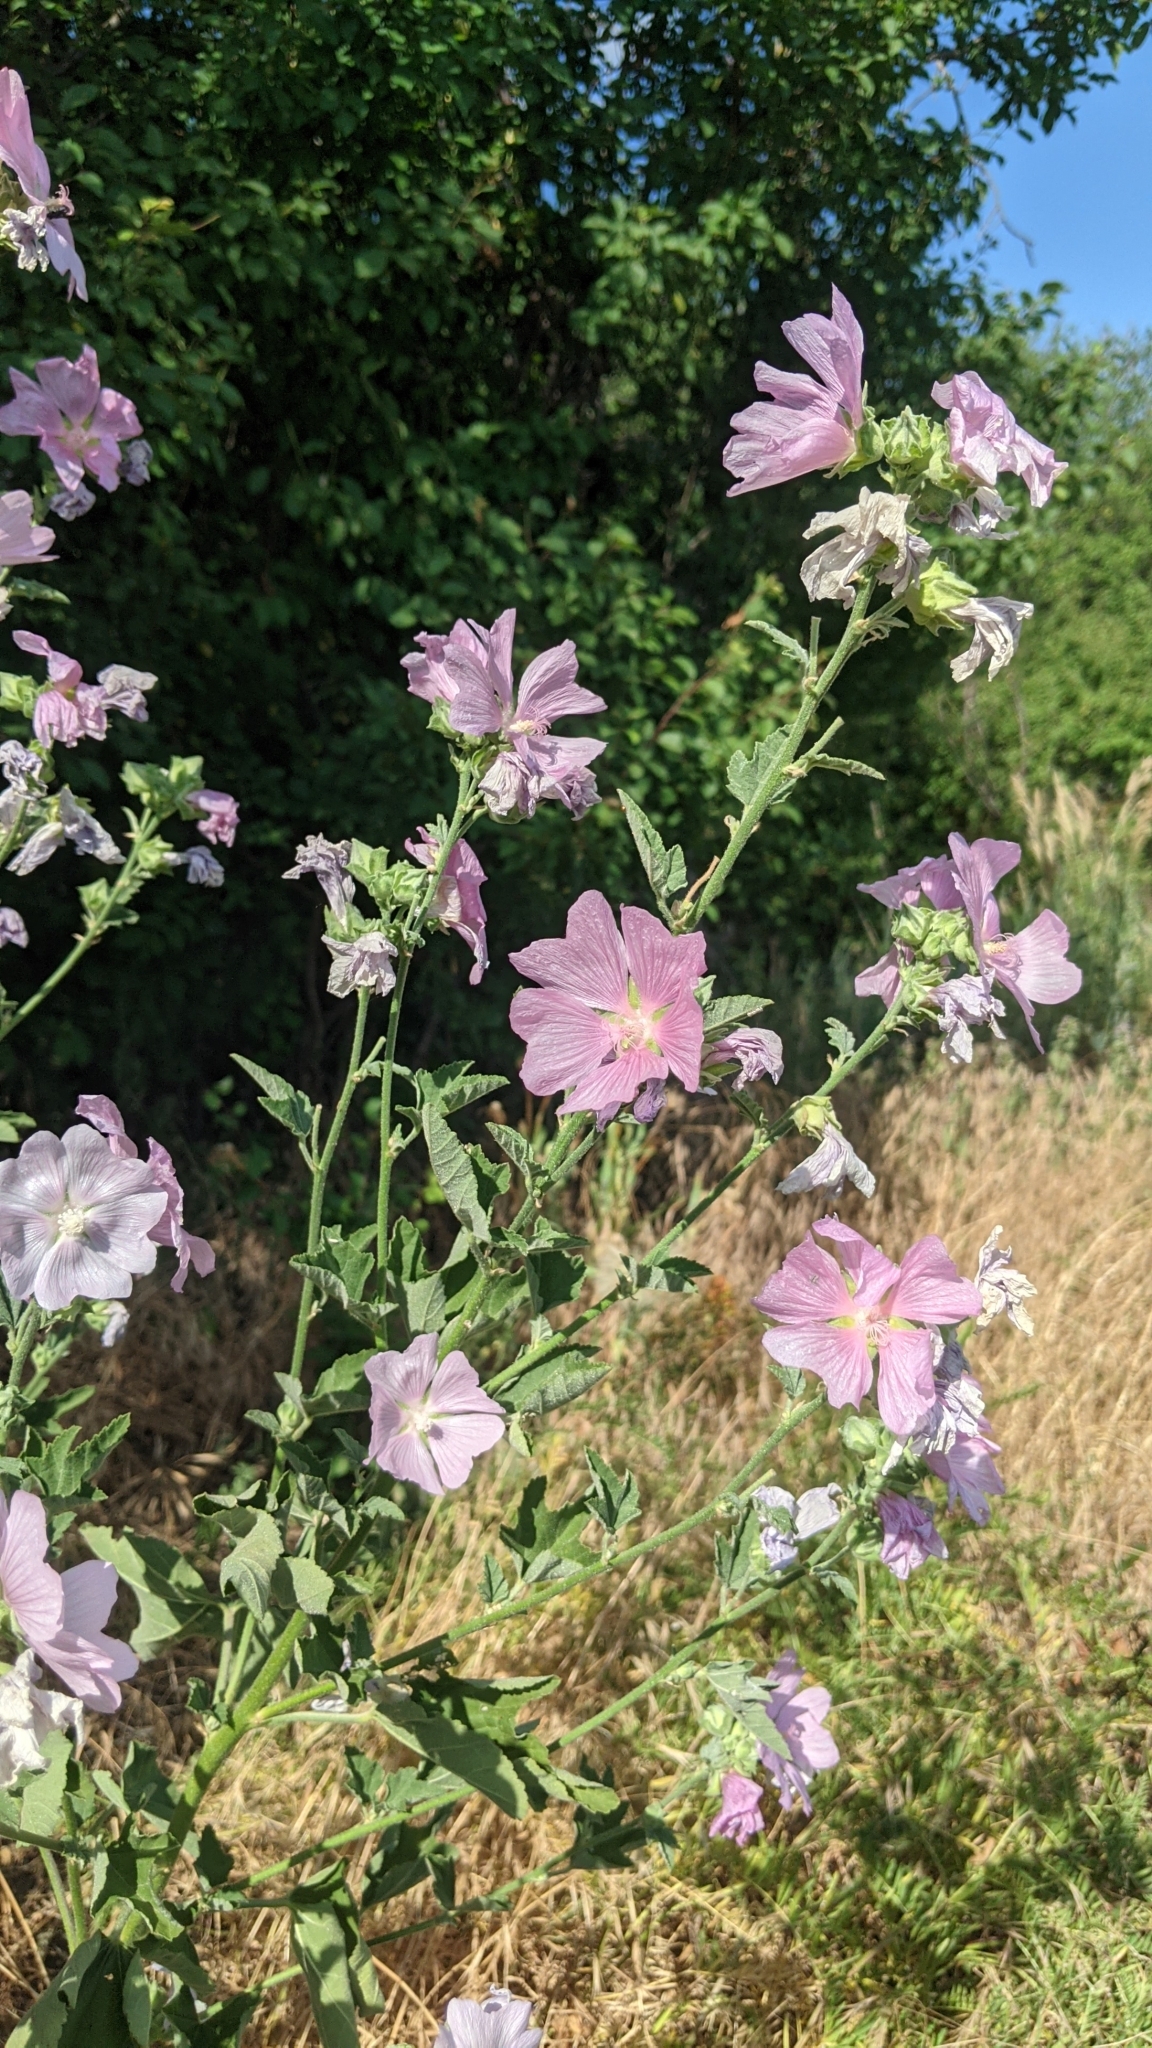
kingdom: Plantae
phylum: Tracheophyta
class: Magnoliopsida
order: Malvales
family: Malvaceae
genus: Malva
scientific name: Malva thuringiaca
